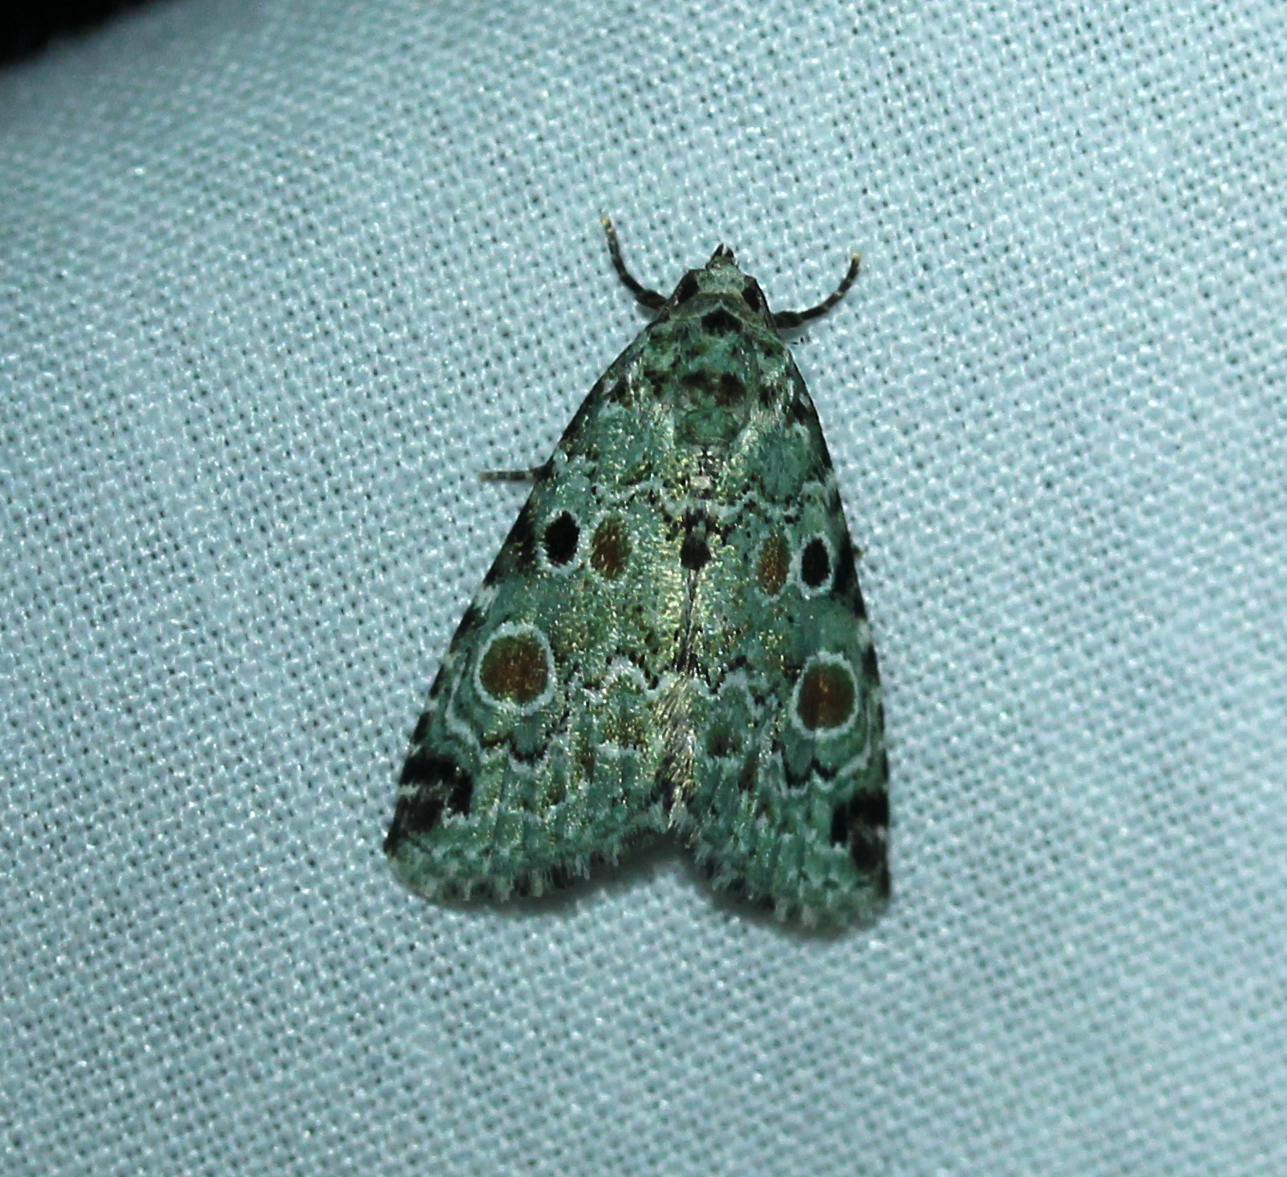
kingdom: Animalia
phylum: Arthropoda
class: Insecta
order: Lepidoptera
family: Noctuidae
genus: Maliattha
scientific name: Maliattha concinnimacula
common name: Red-spotted glyph
